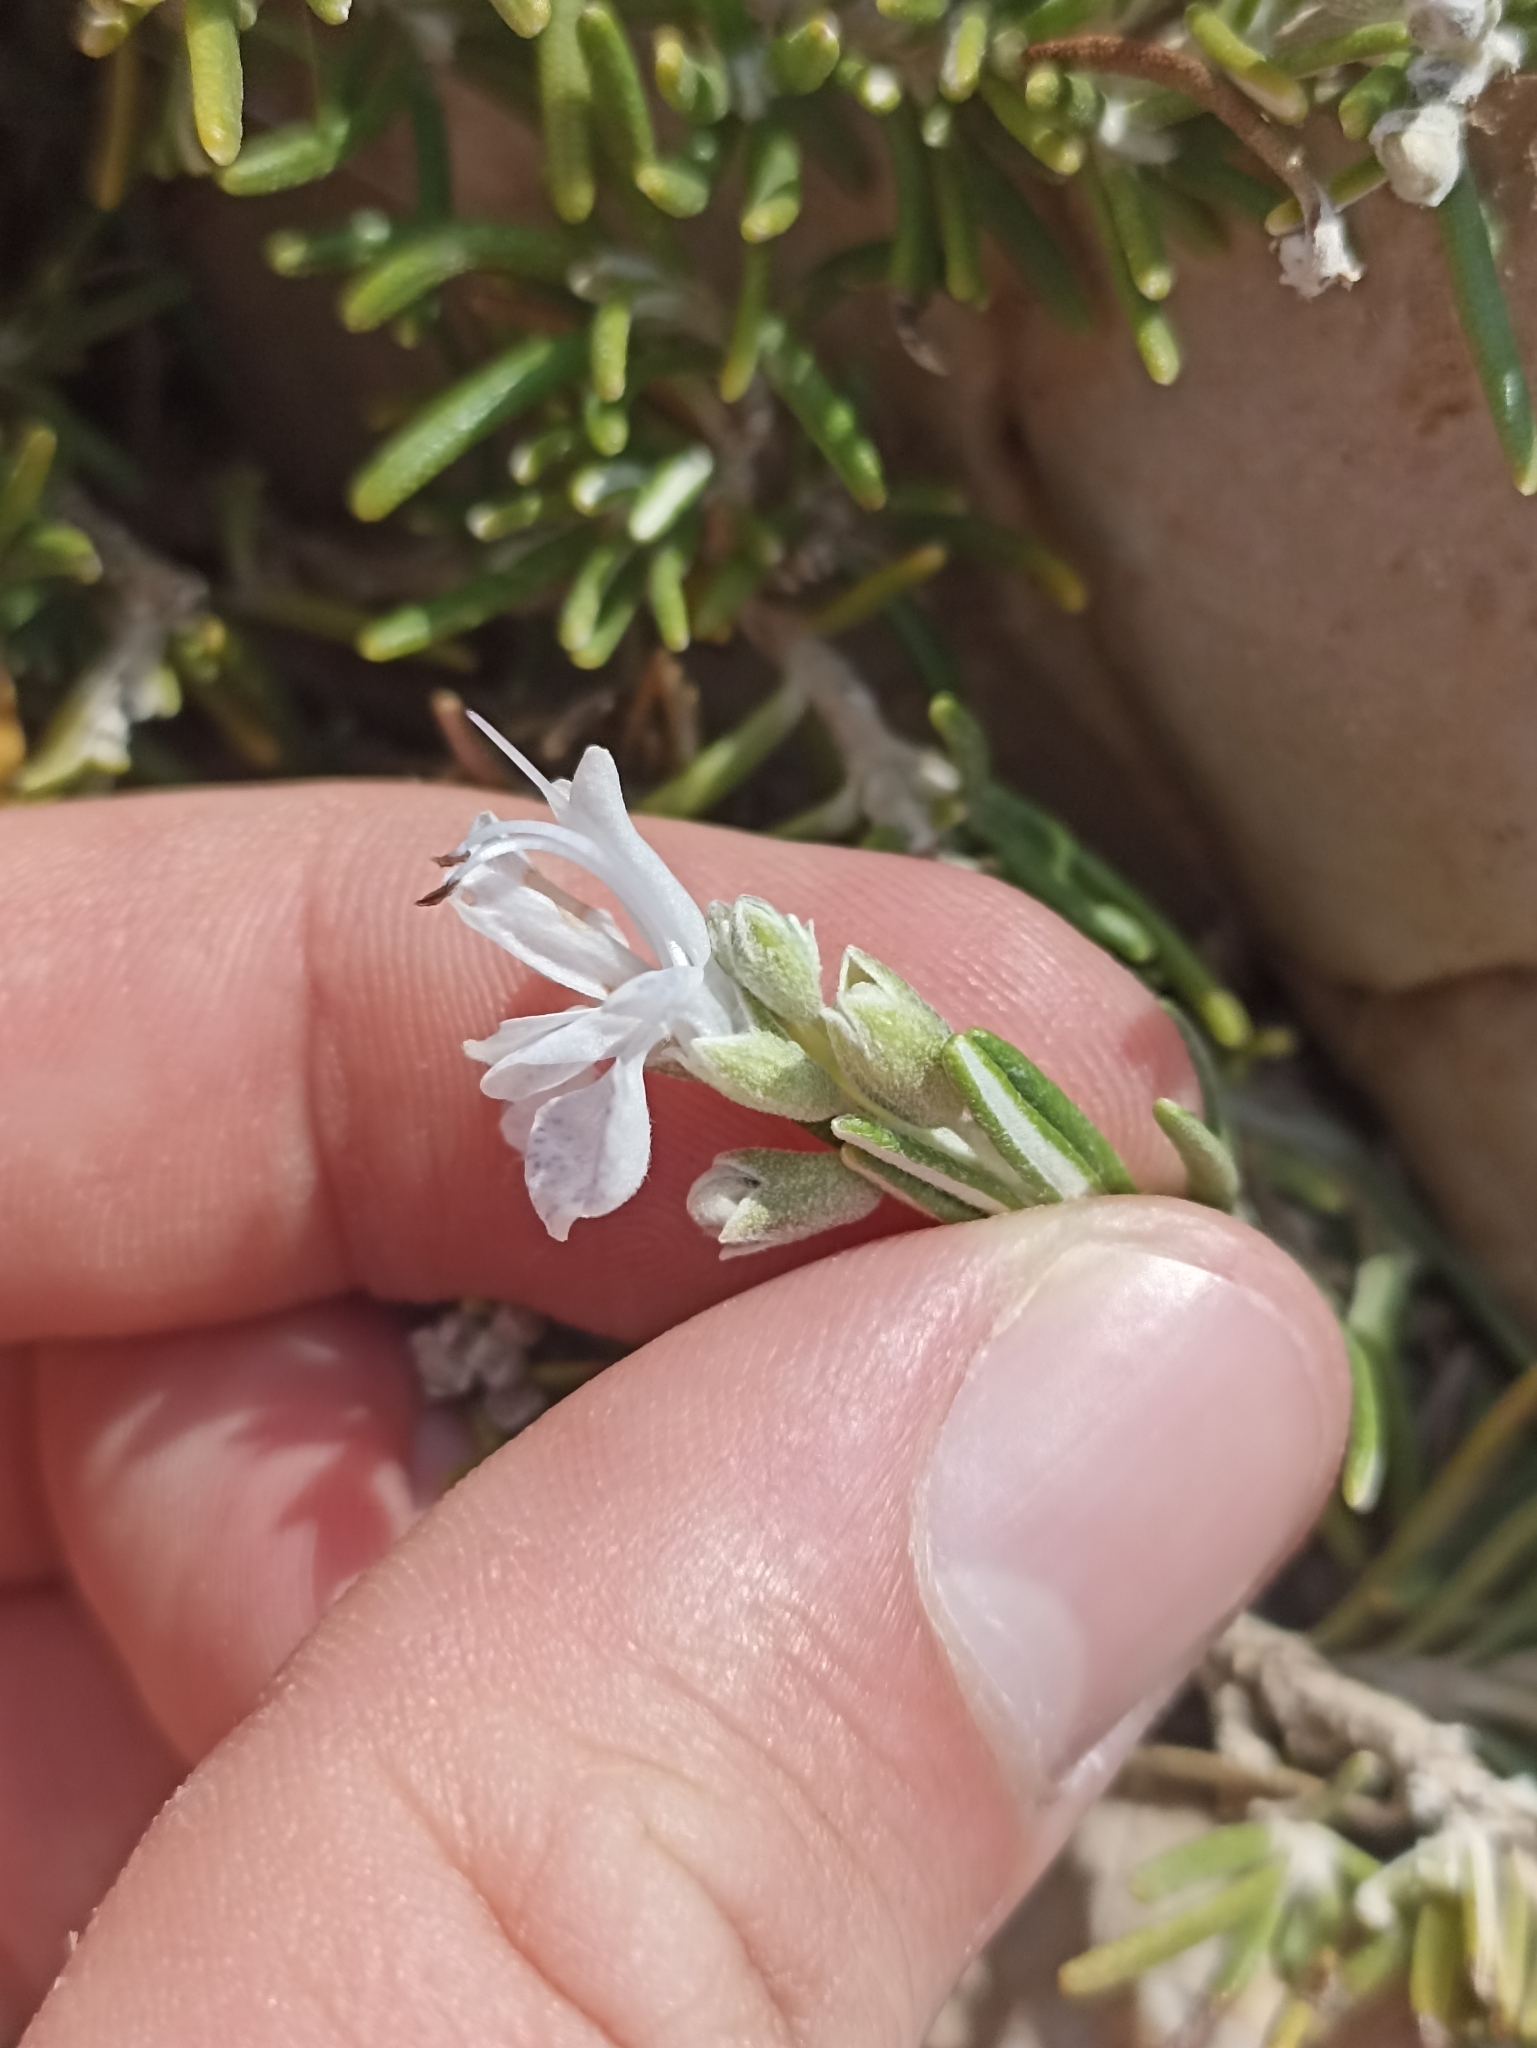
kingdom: Plantae
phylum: Tracheophyta
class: Magnoliopsida
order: Lamiales
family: Lamiaceae
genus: Salvia
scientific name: Salvia rosmarinus
